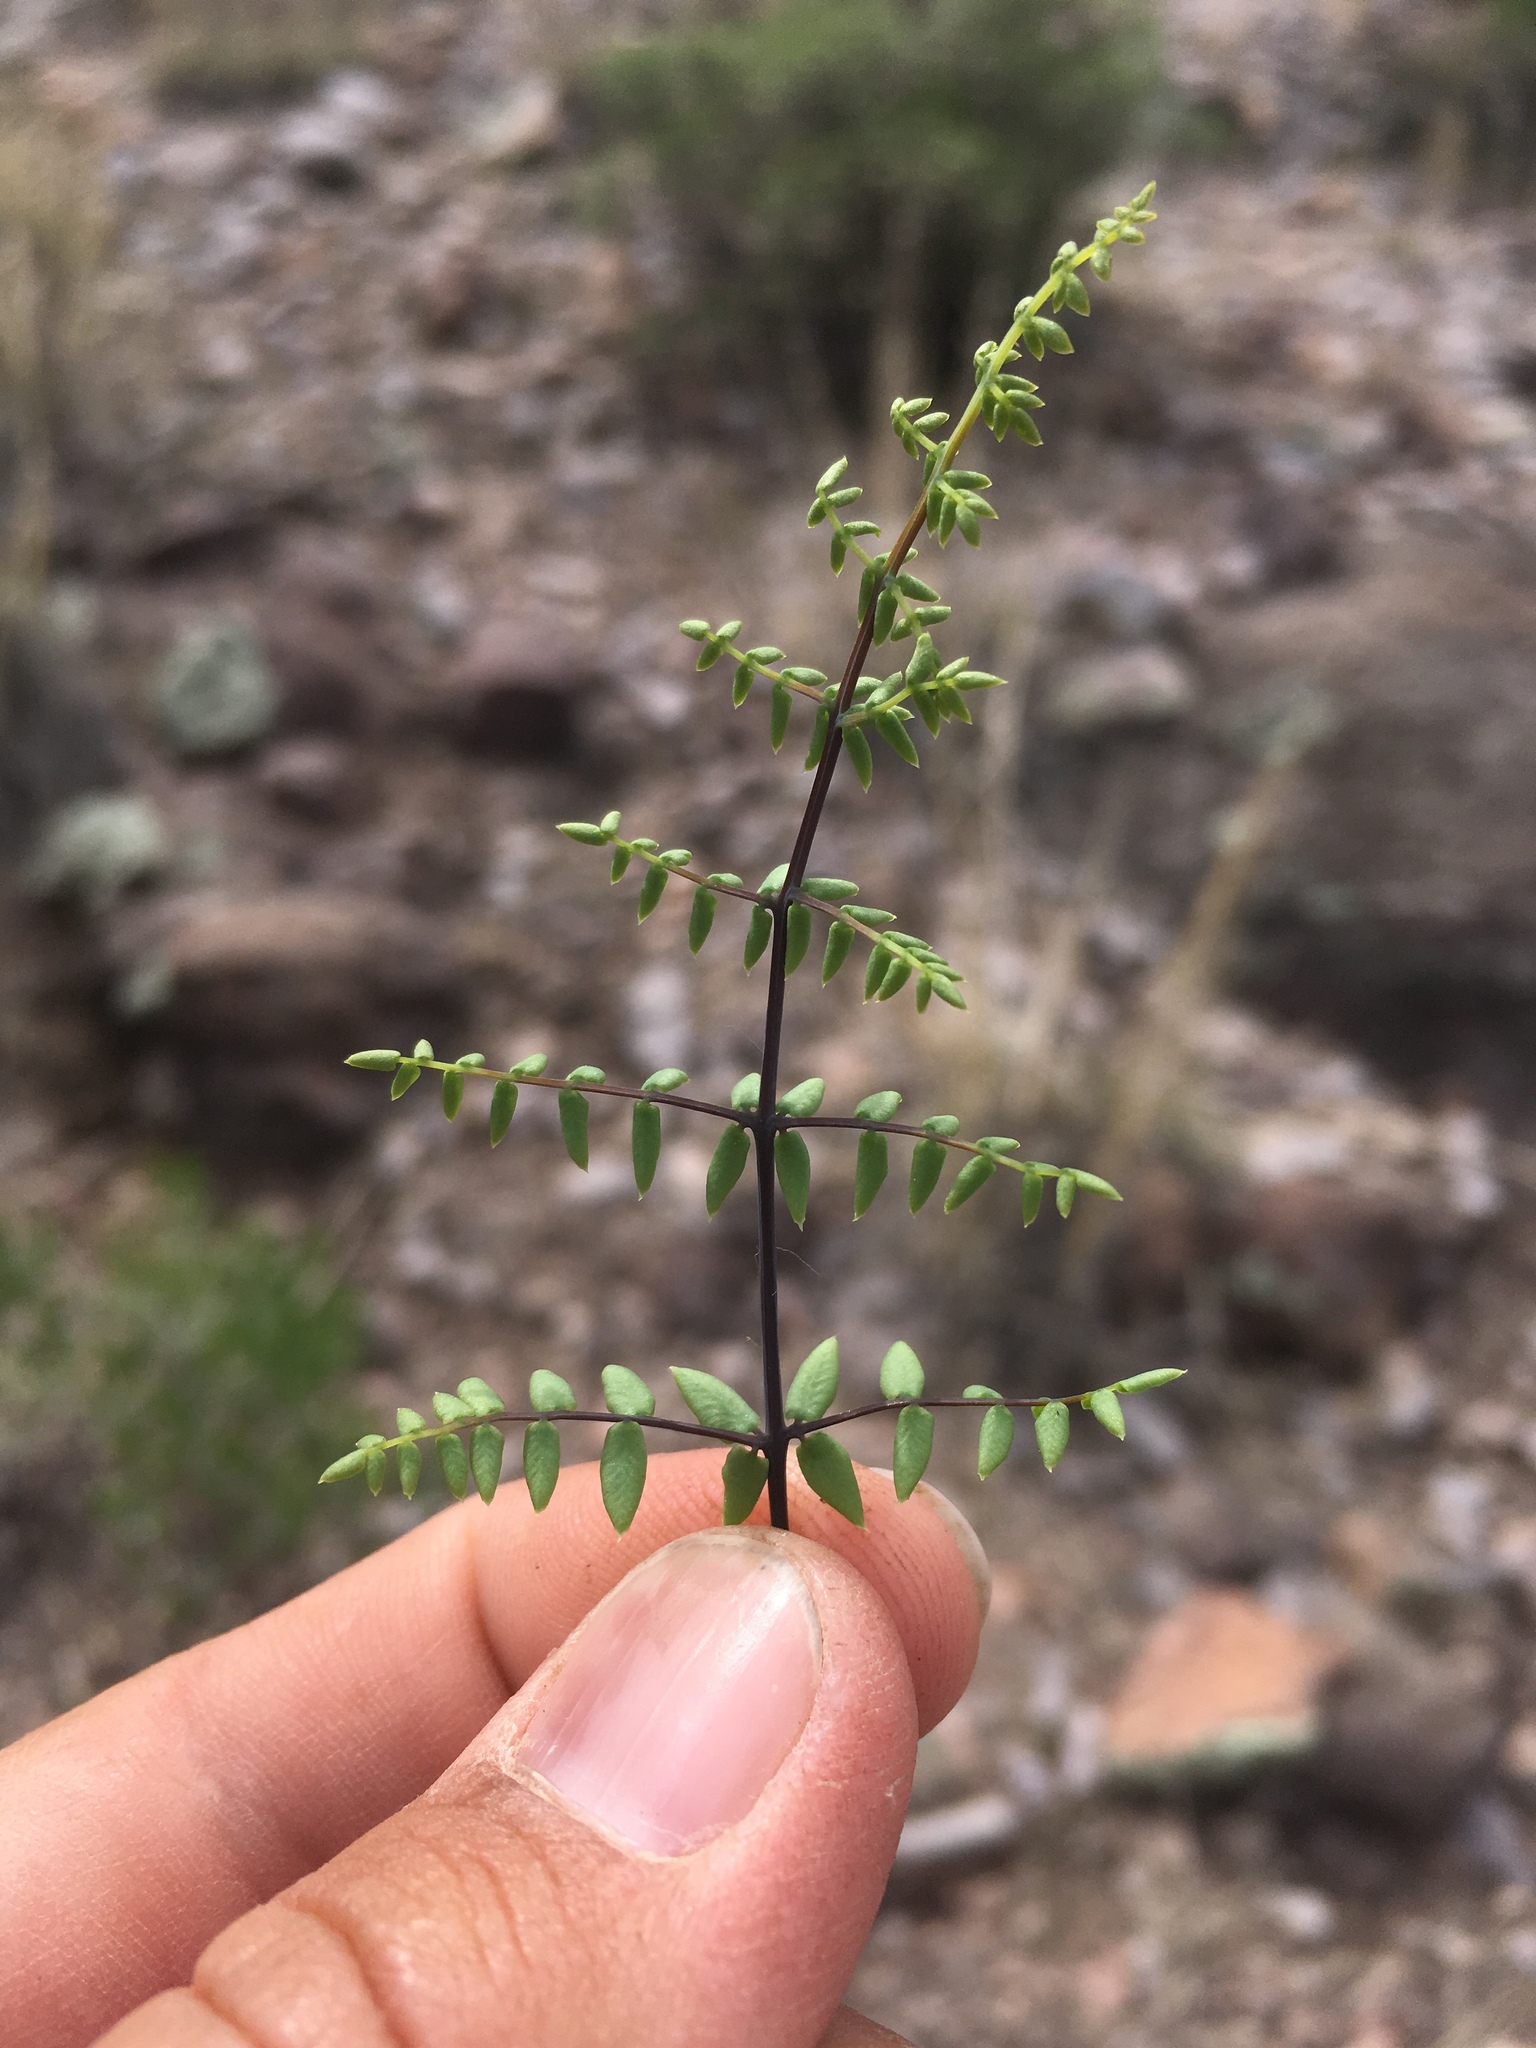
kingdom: Plantae
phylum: Tracheophyta
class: Polypodiopsida
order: Polypodiales
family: Pteridaceae
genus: Pellaea
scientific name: Pellaea truncata
